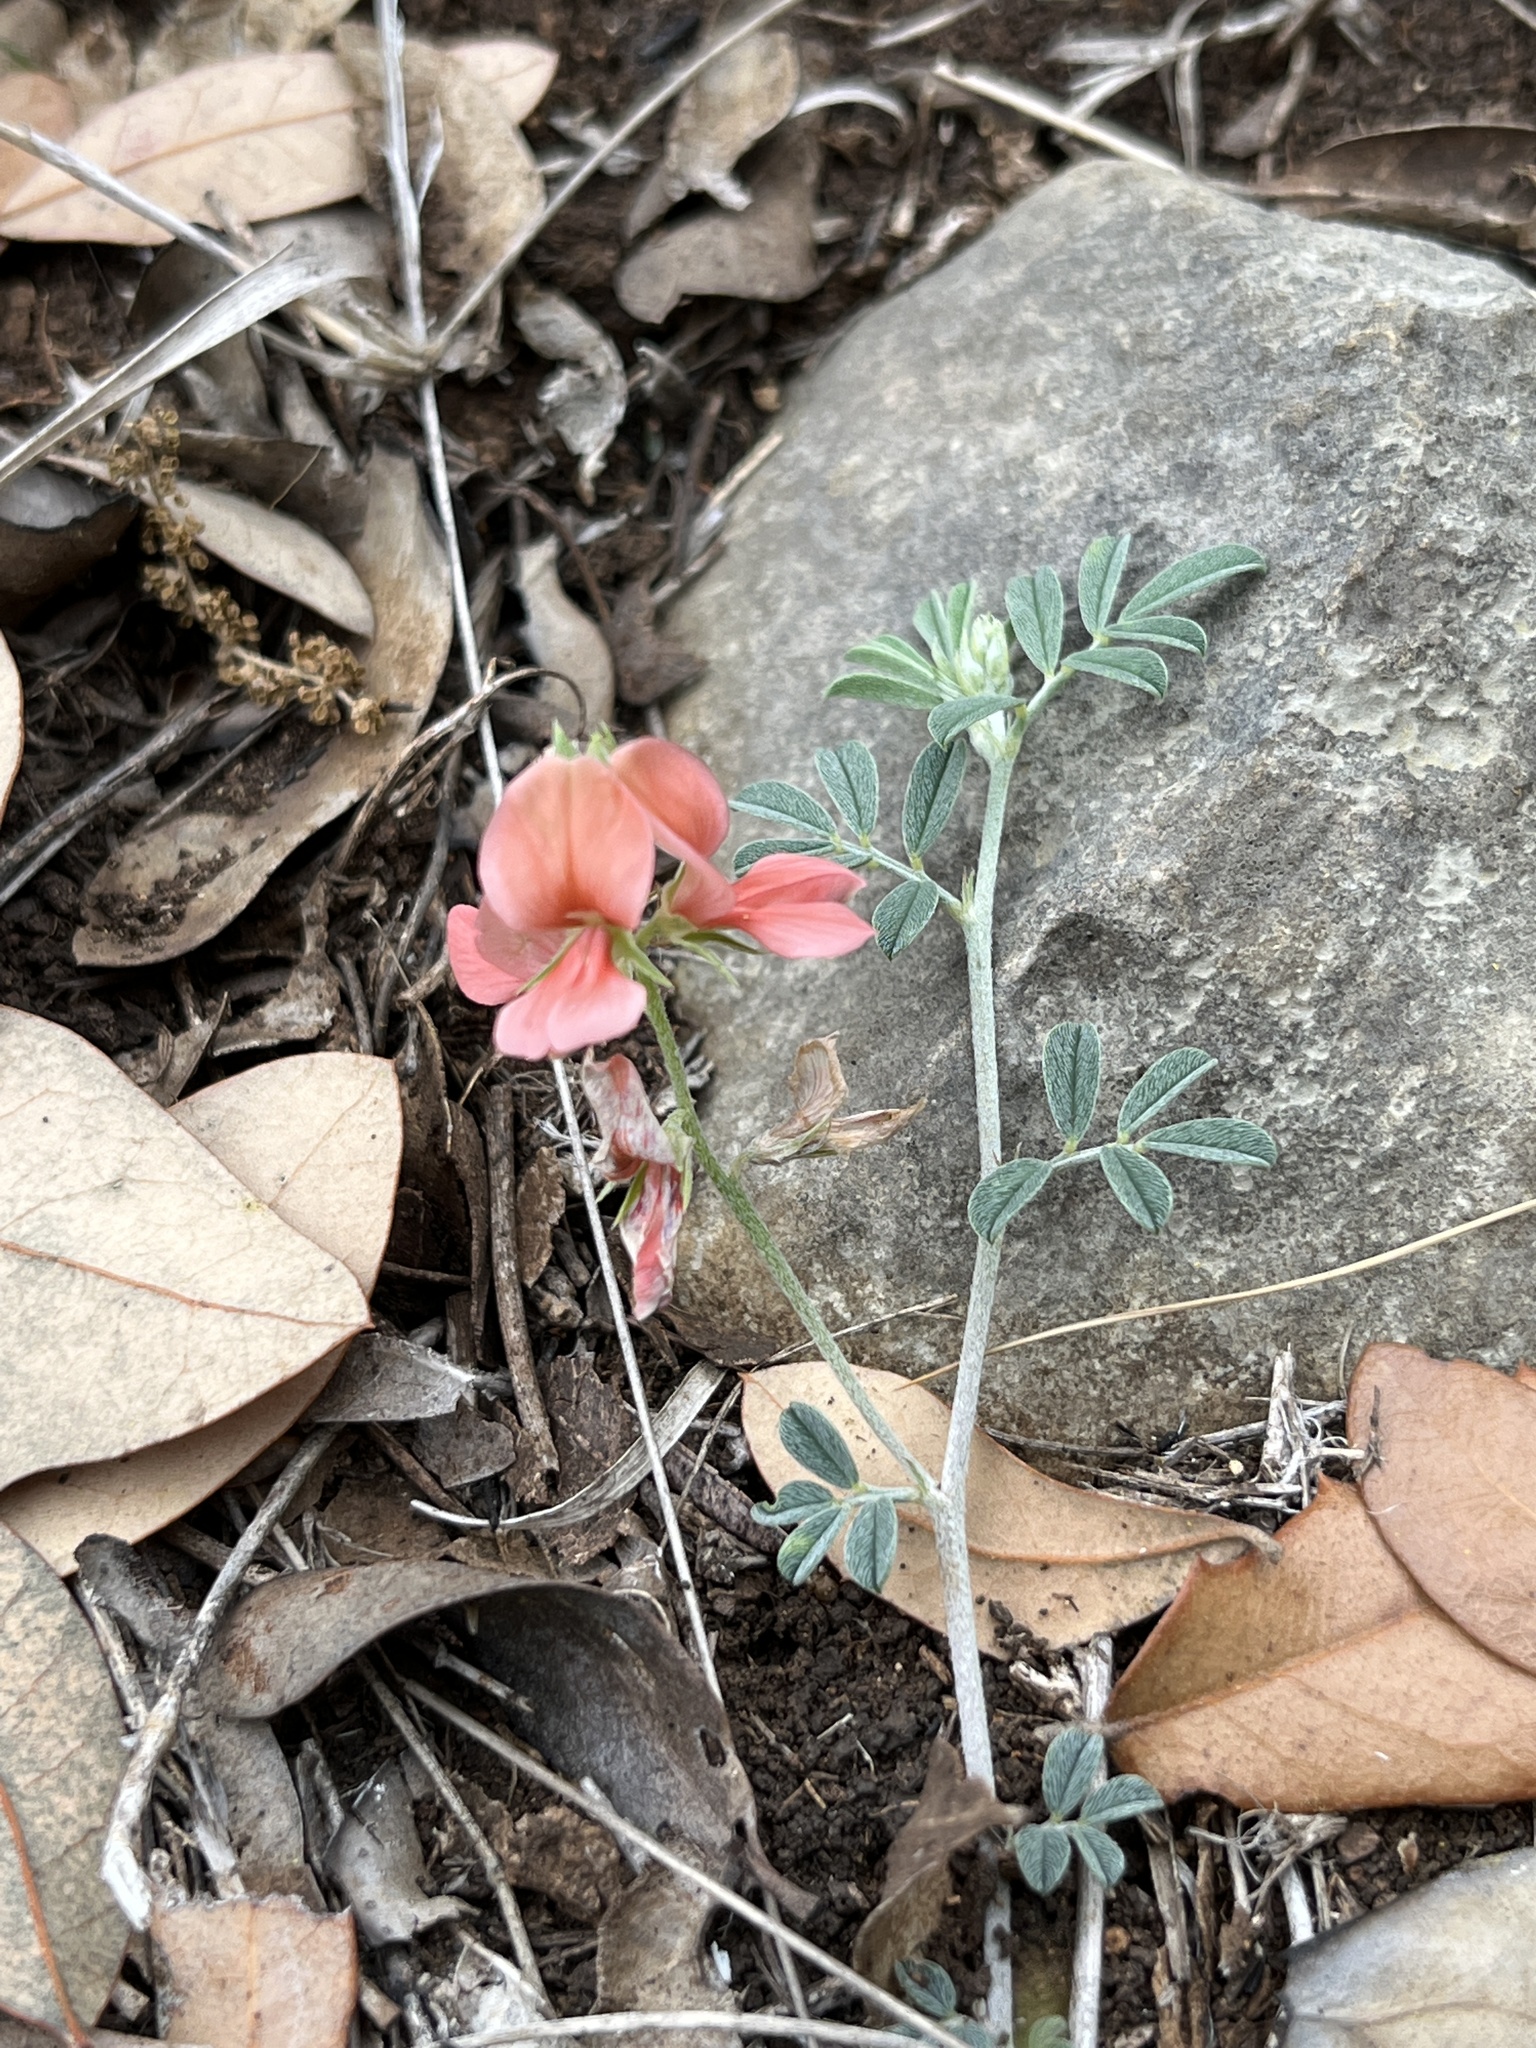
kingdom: Plantae
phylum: Tracheophyta
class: Magnoliopsida
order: Fabales
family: Fabaceae
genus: Indigofera
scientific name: Indigofera miniata
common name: Coast indigo
